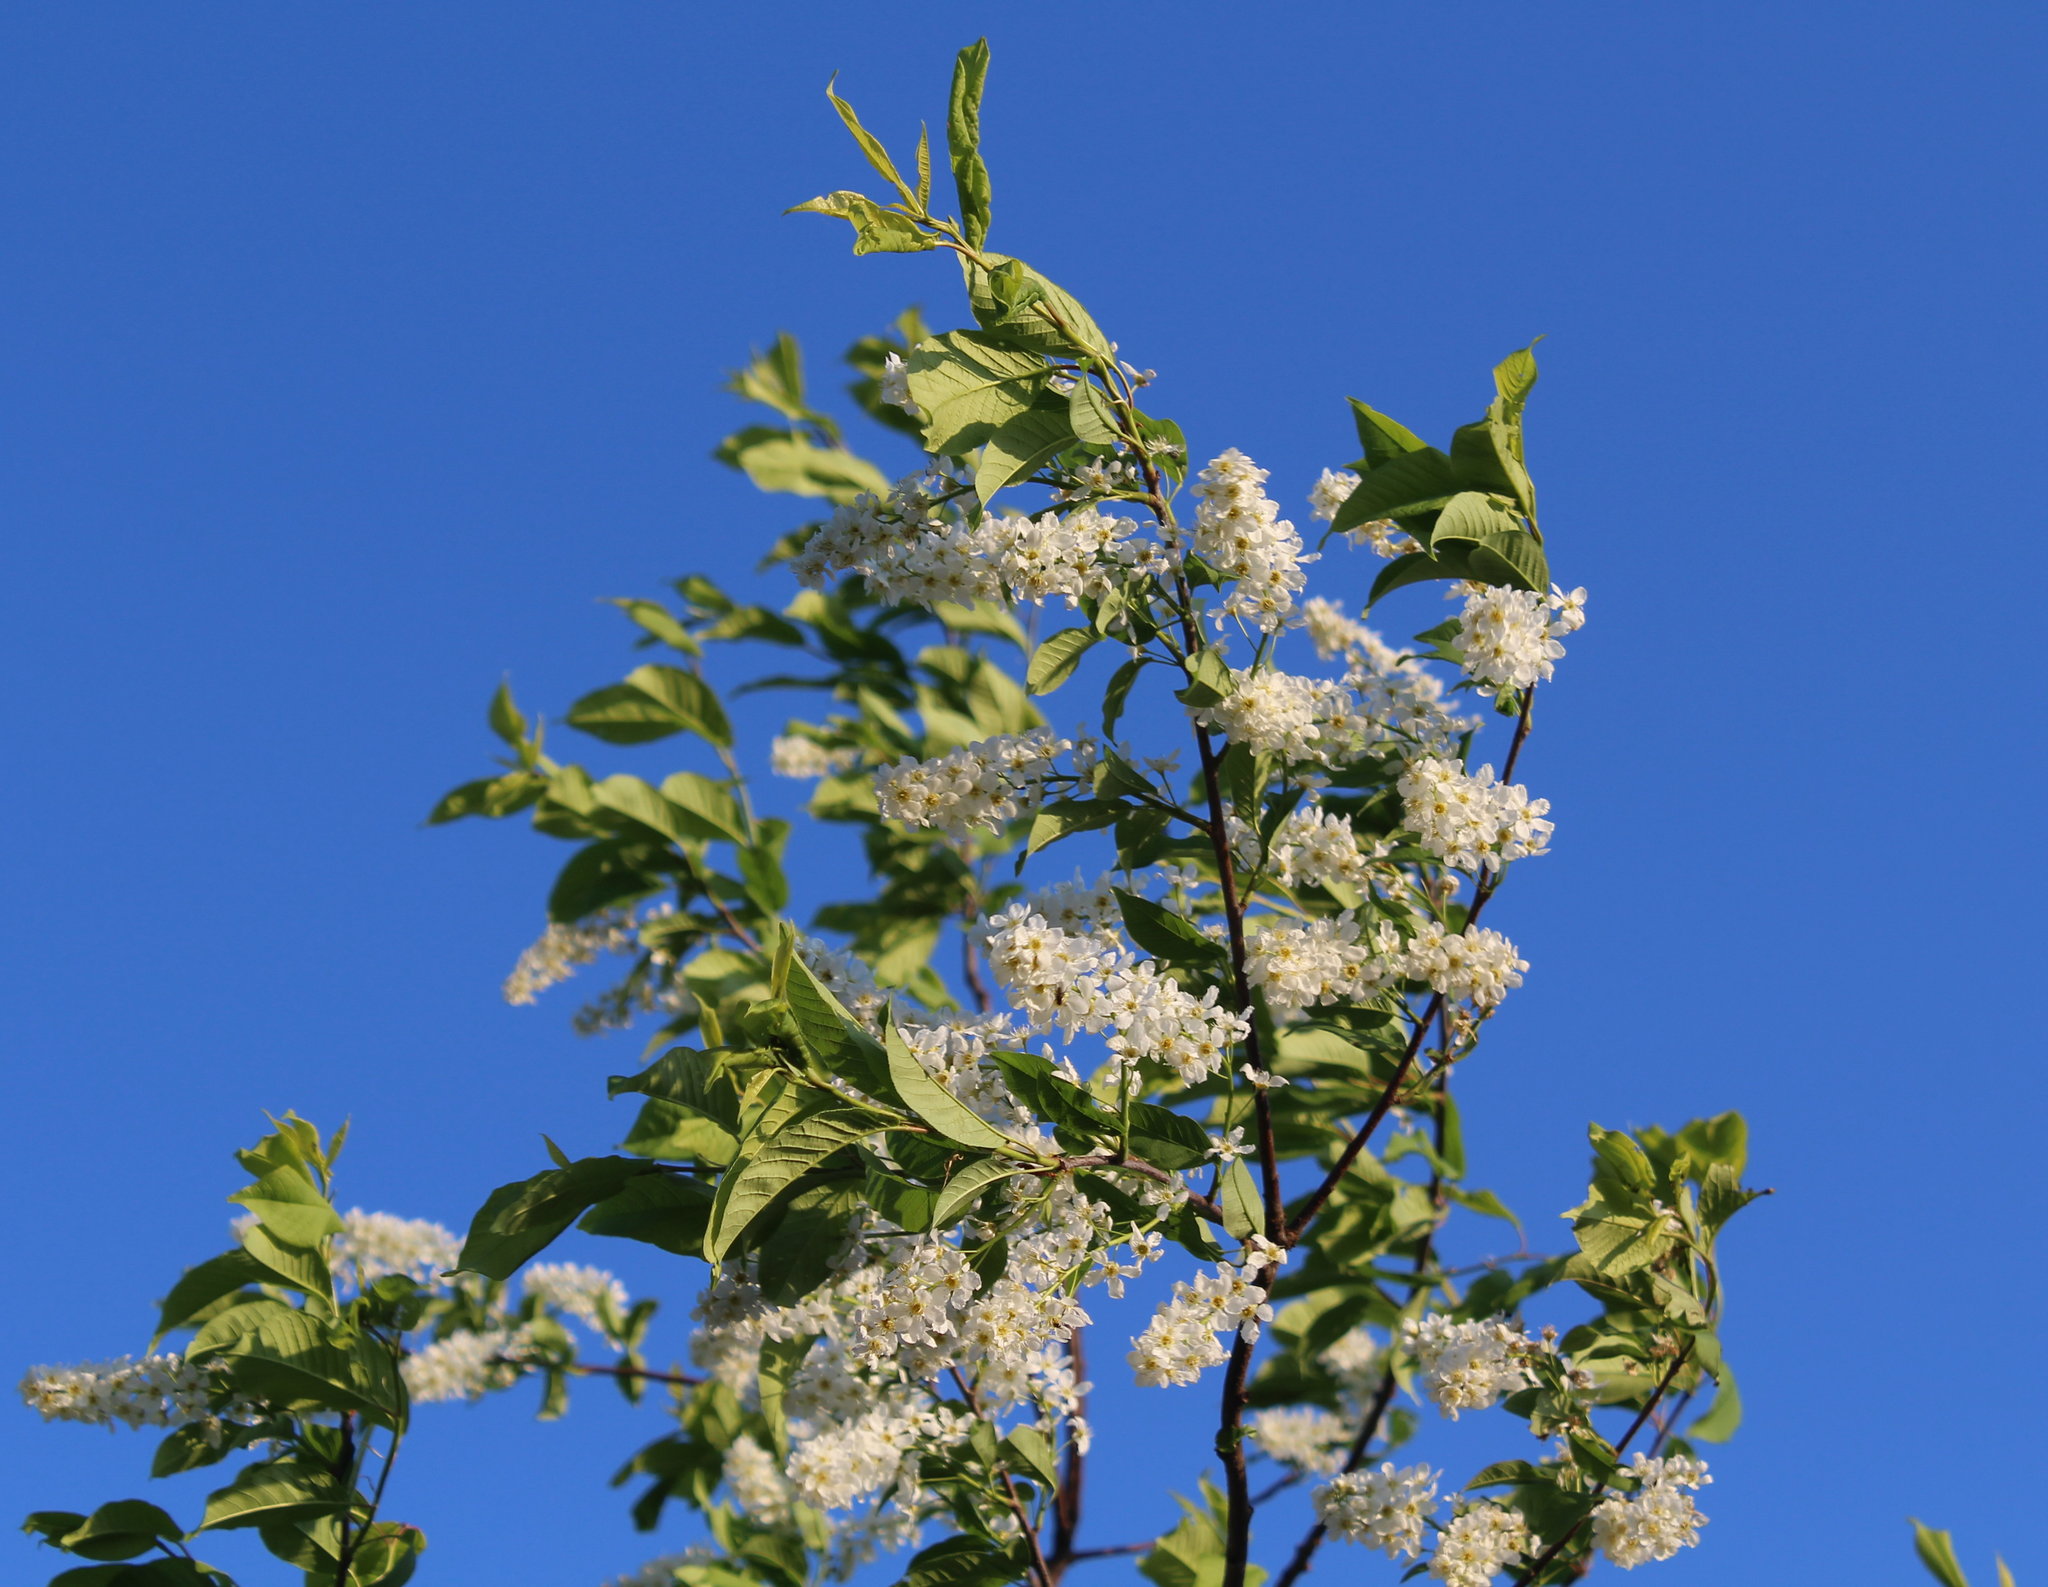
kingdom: Plantae
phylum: Tracheophyta
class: Magnoliopsida
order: Rosales
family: Rosaceae
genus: Prunus
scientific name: Prunus padus
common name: Bird cherry
